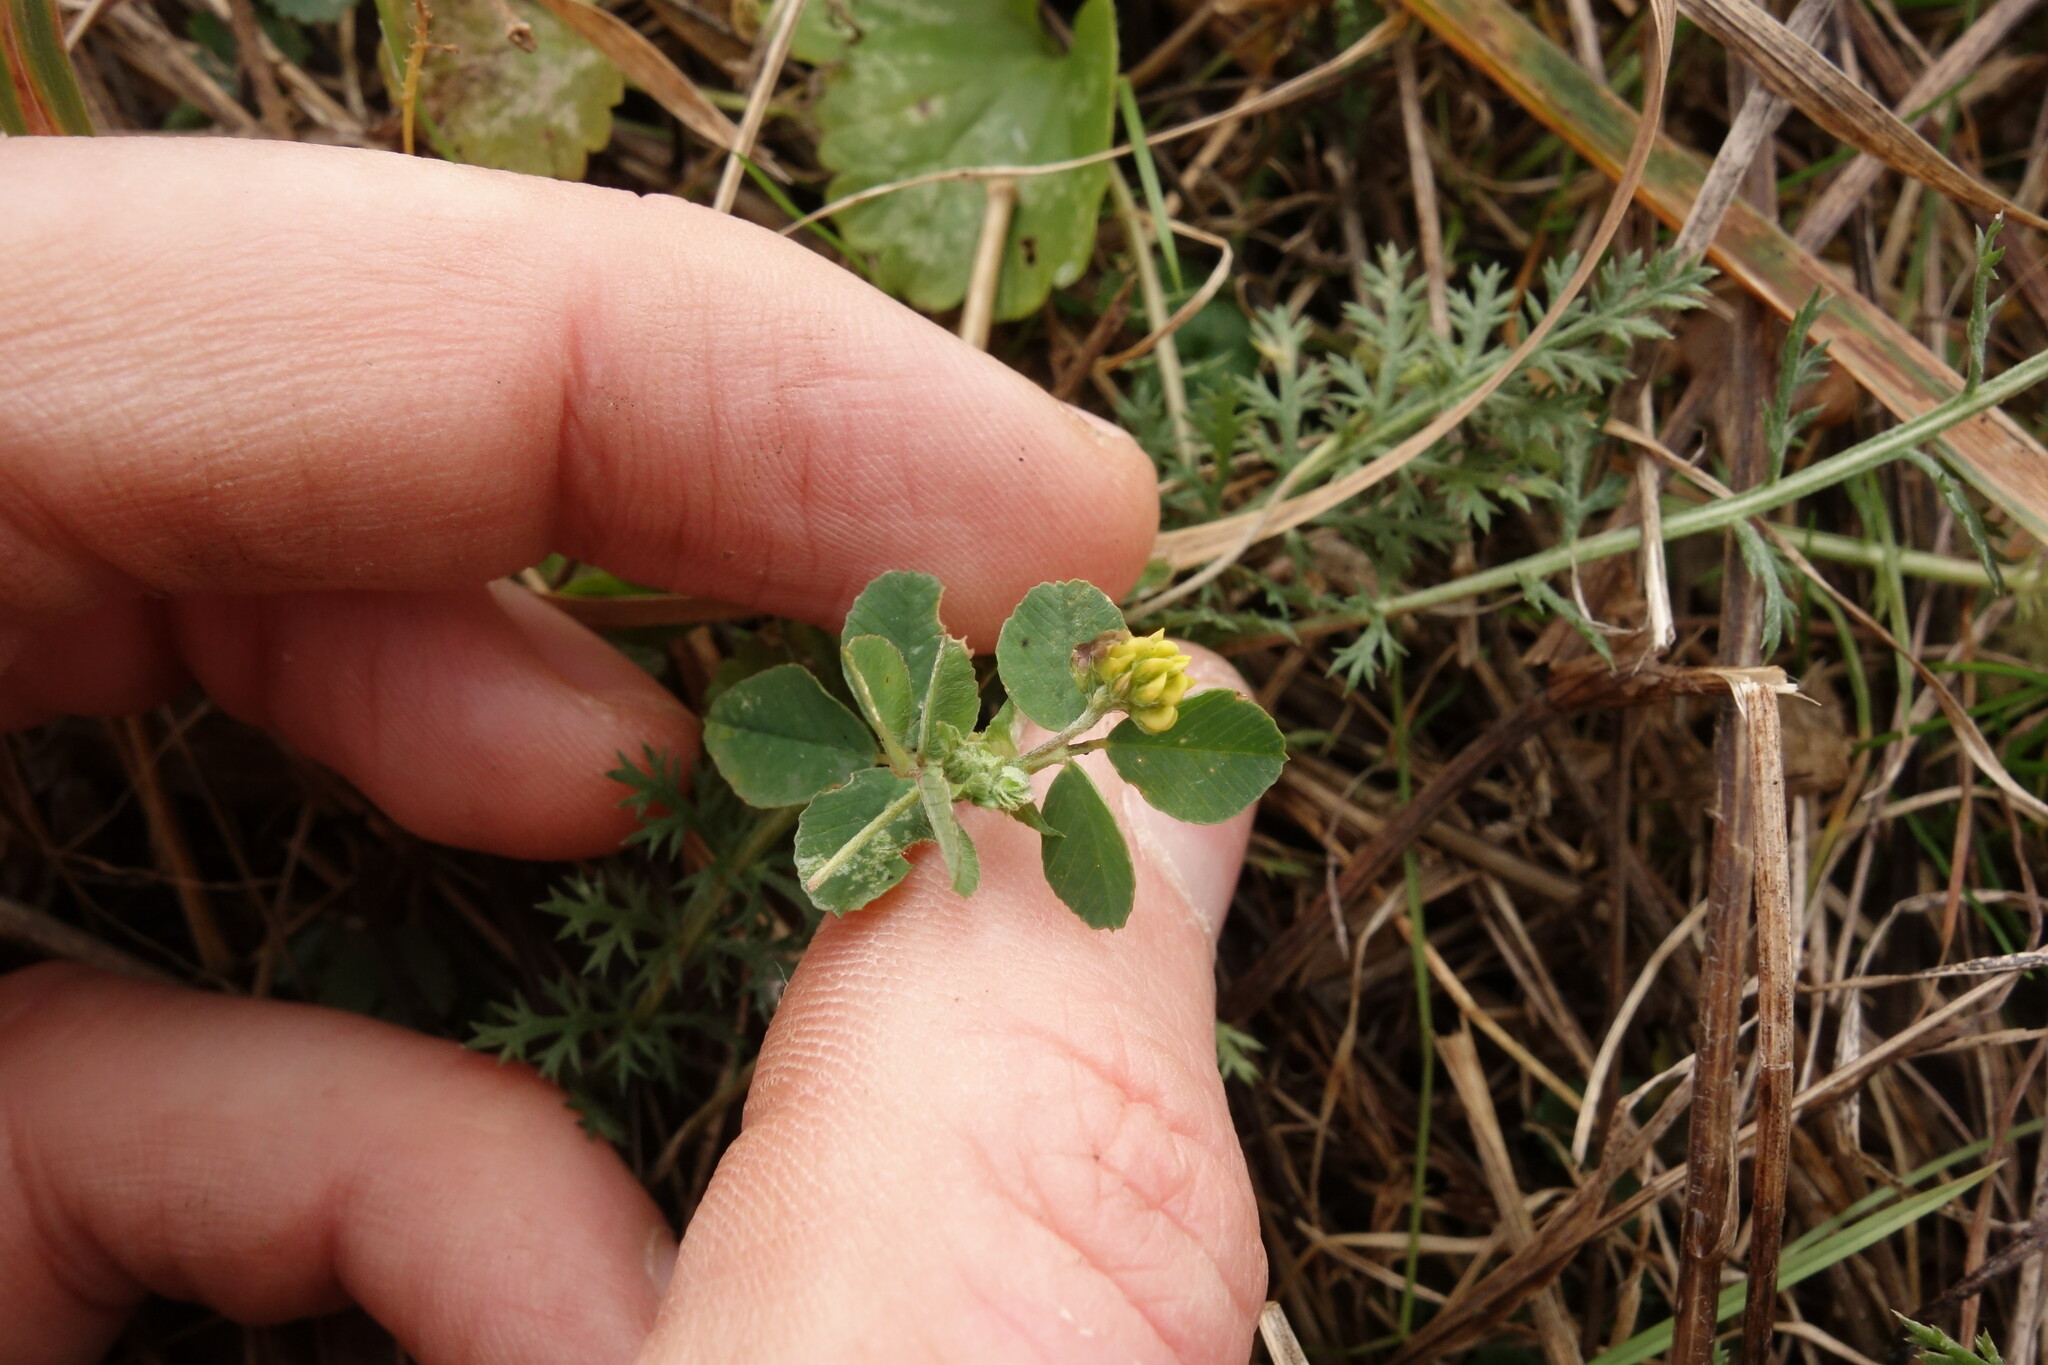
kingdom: Plantae
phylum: Tracheophyta
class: Magnoliopsida
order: Fabales
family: Fabaceae
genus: Medicago
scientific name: Medicago lupulina
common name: Black medick
